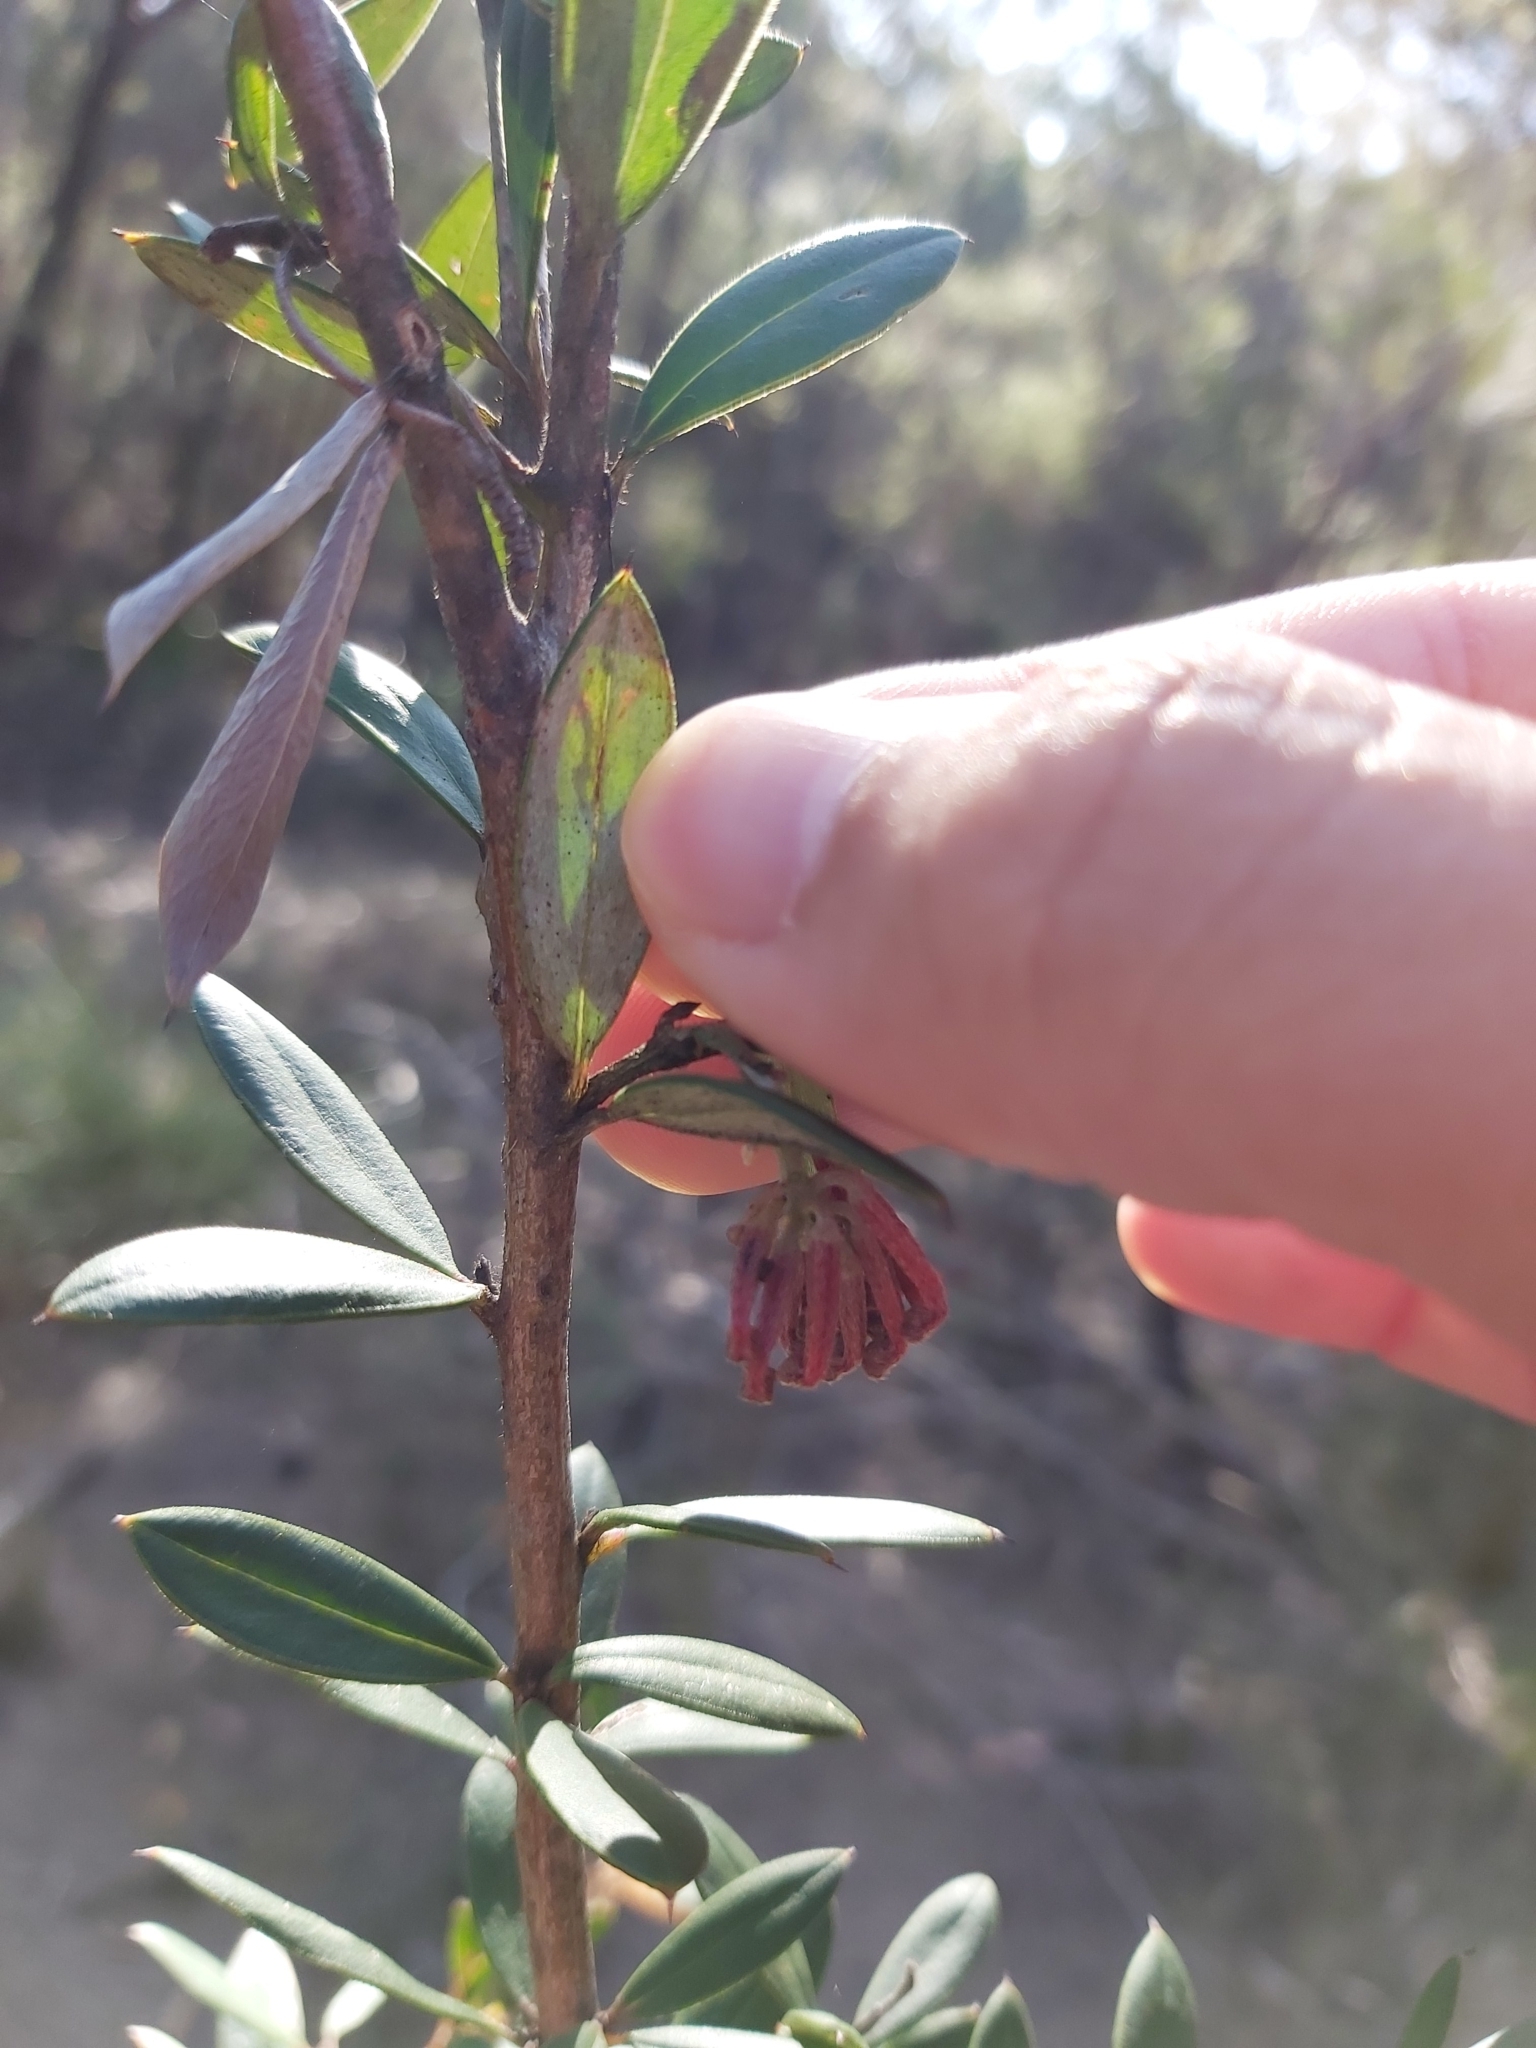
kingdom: Plantae
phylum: Tracheophyta
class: Magnoliopsida
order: Proteales
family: Proteaceae
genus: Grevillea
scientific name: Grevillea speciosa
